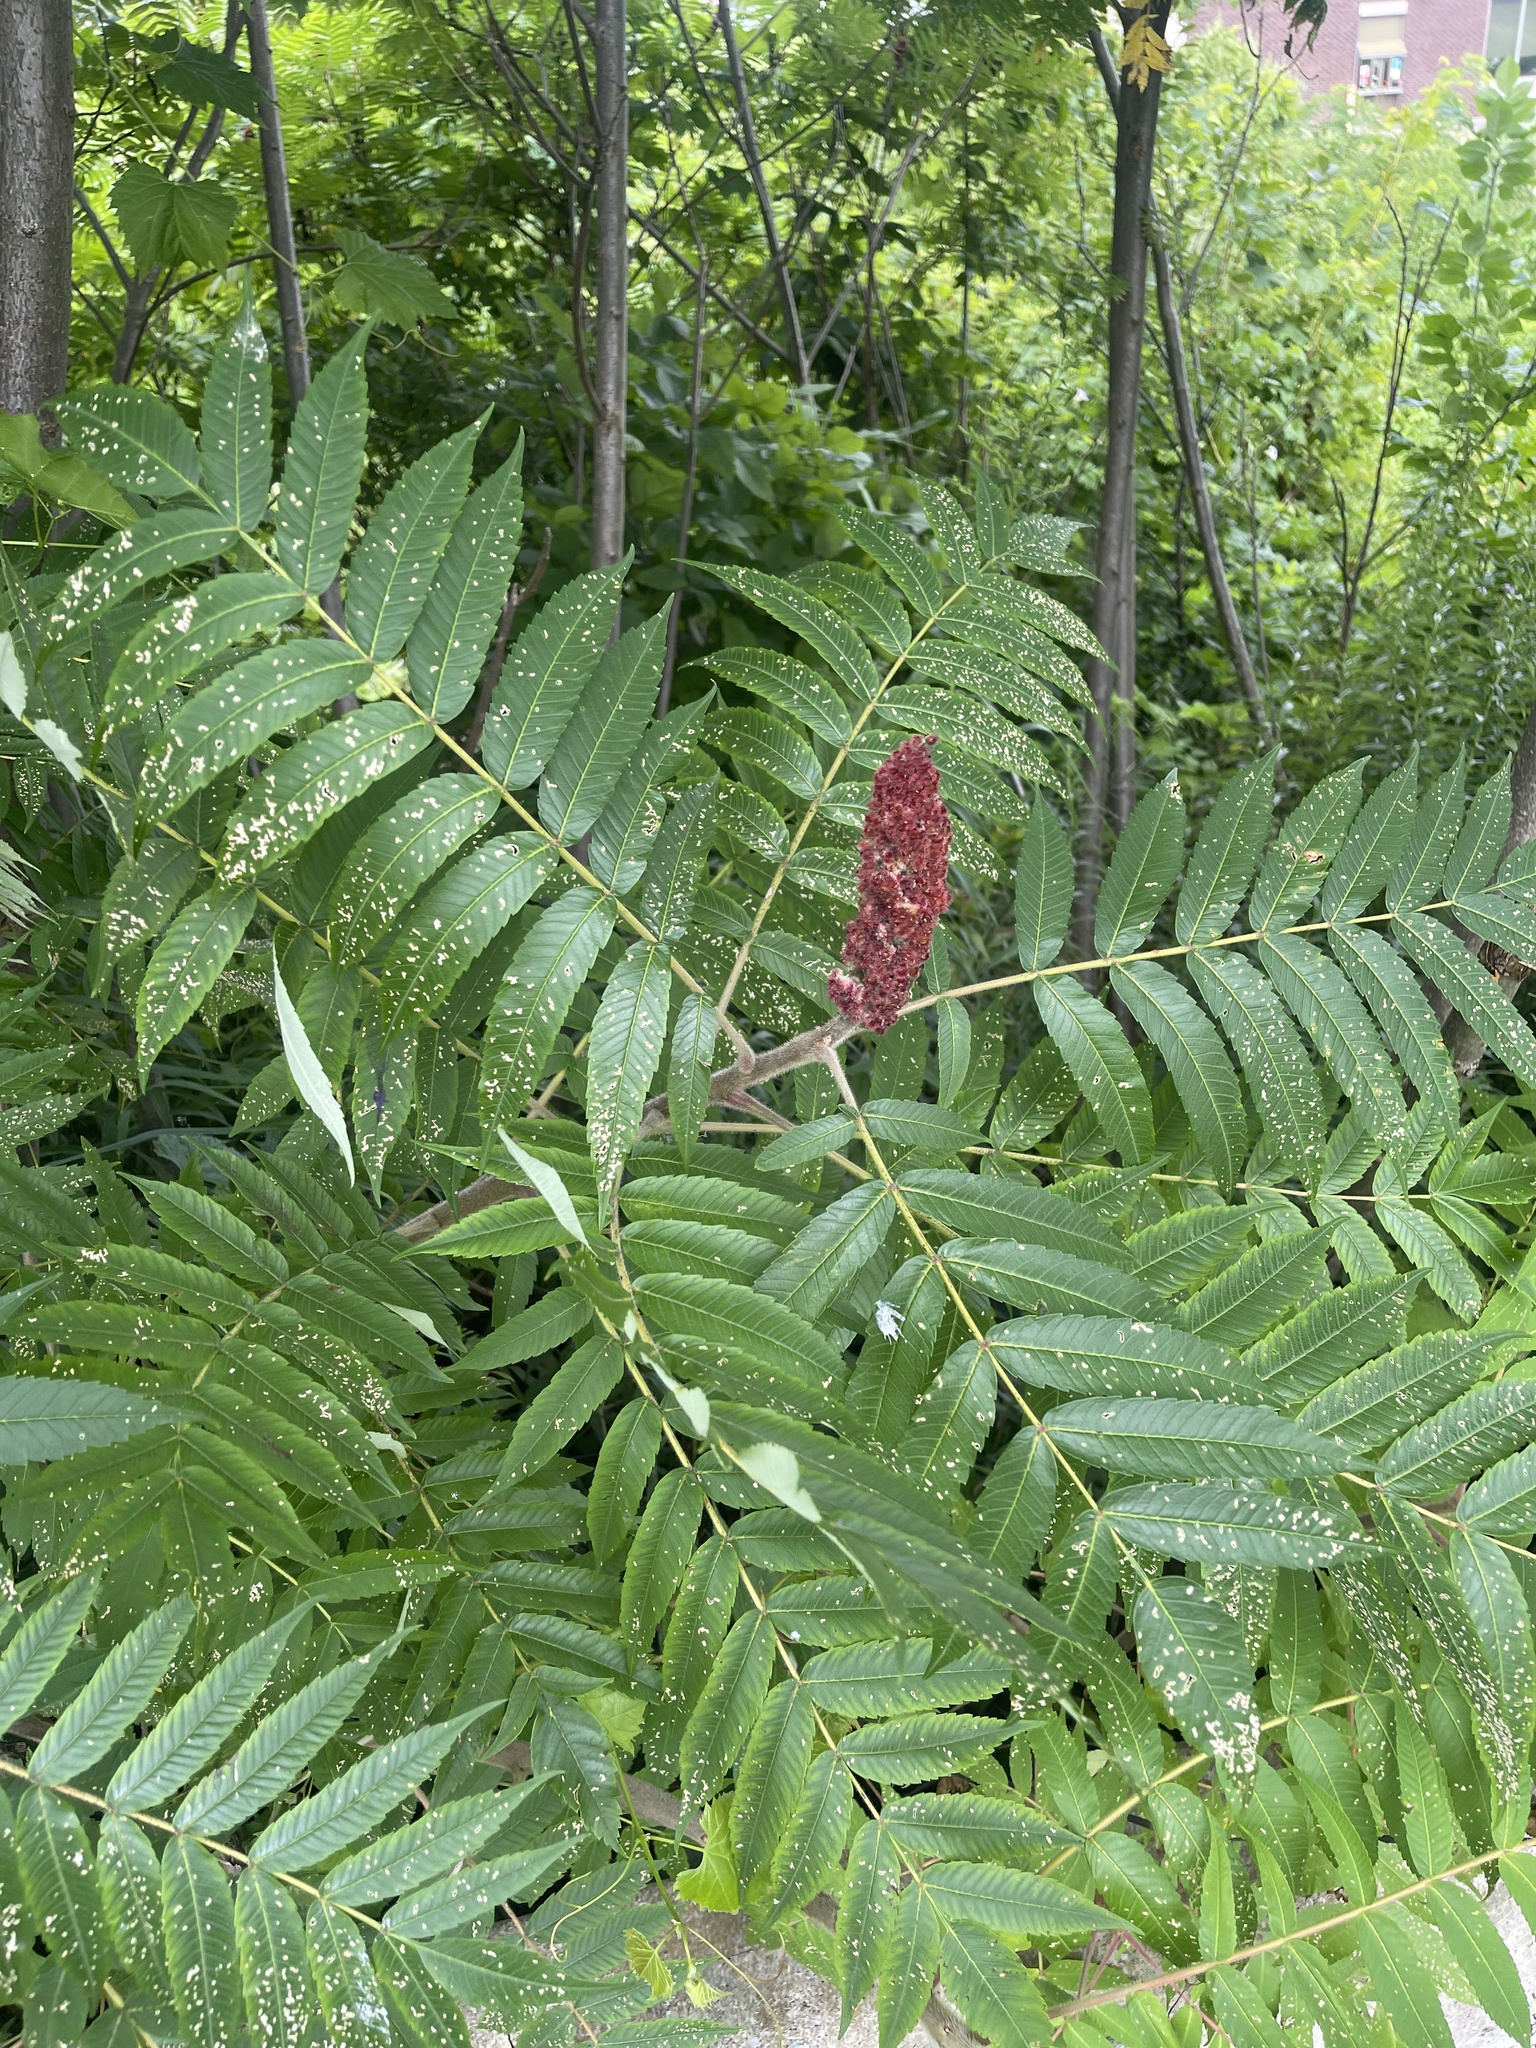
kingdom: Plantae
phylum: Tracheophyta
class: Magnoliopsida
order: Sapindales
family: Anacardiaceae
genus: Rhus
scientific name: Rhus typhina
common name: Staghorn sumac
